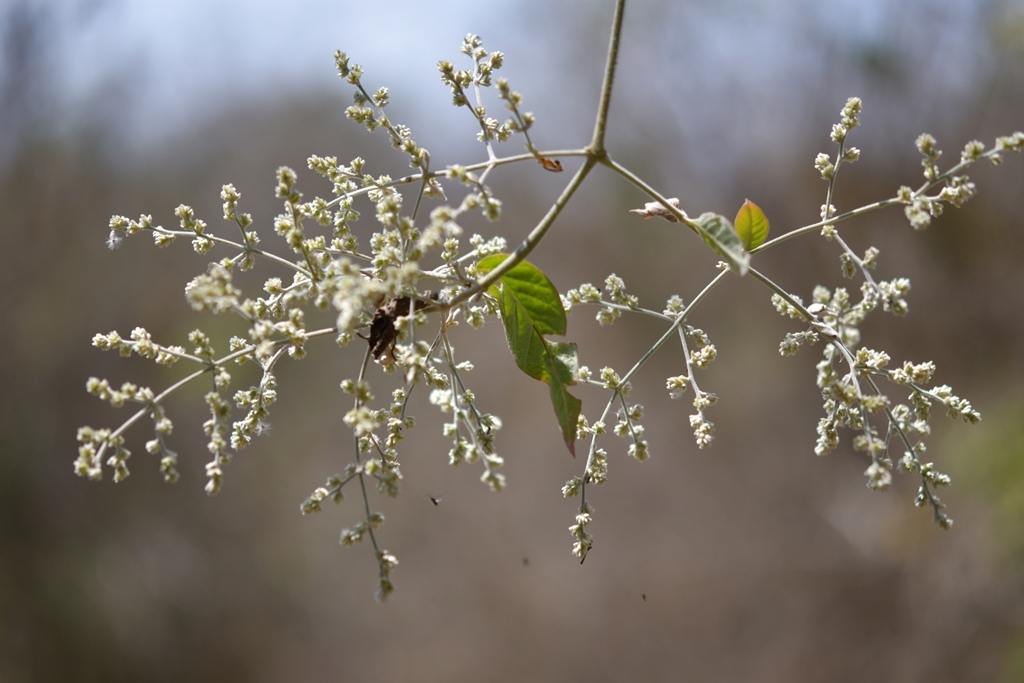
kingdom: Plantae
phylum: Tracheophyta
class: Magnoliopsida
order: Caryophyllales
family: Amaranthaceae
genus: Iresine
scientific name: Iresine latifolia
